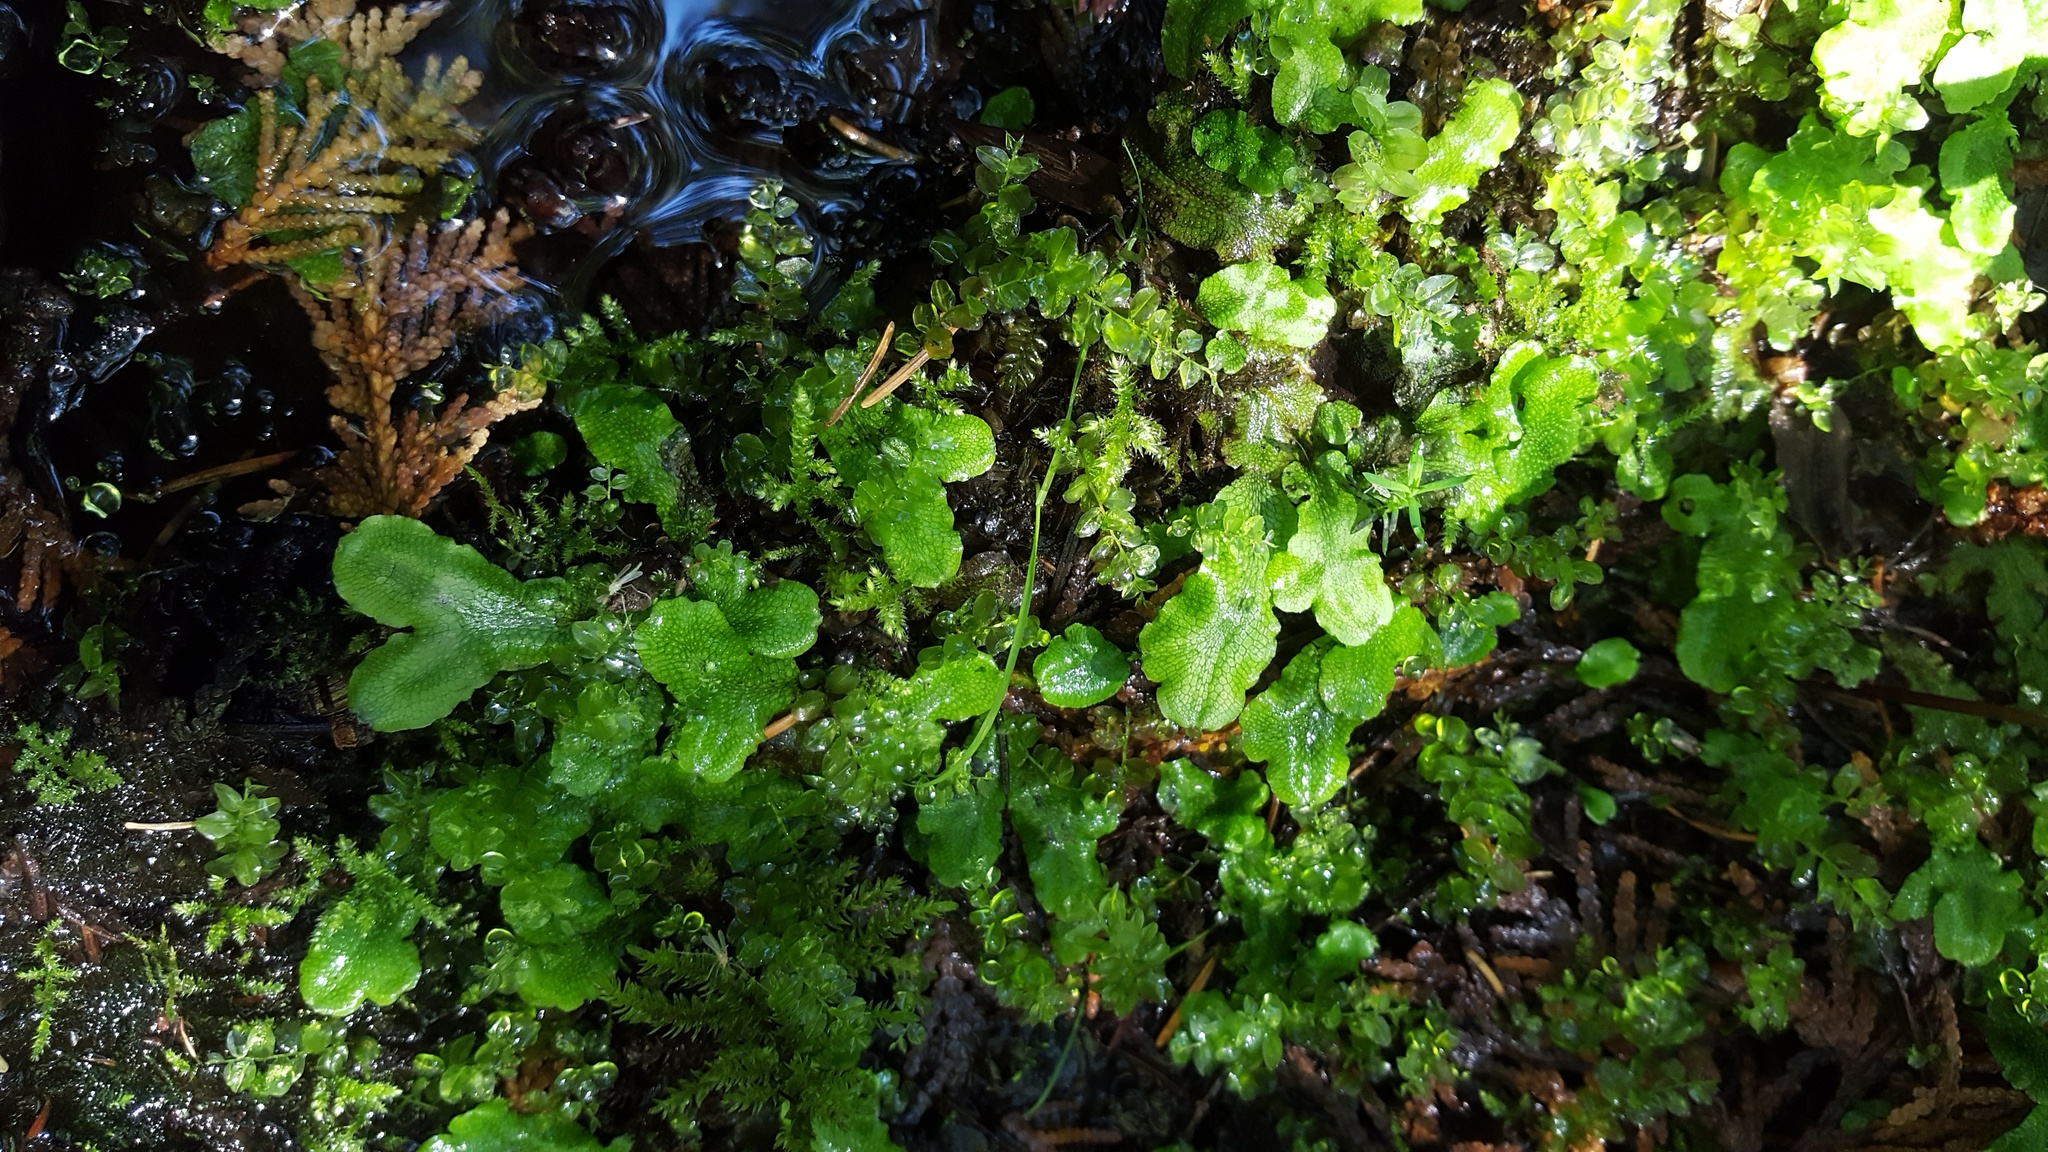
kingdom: Plantae
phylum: Marchantiophyta
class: Marchantiopsida
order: Marchantiales
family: Conocephalaceae
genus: Conocephalum
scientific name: Conocephalum salebrosum
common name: Cat-tongue liverwort
